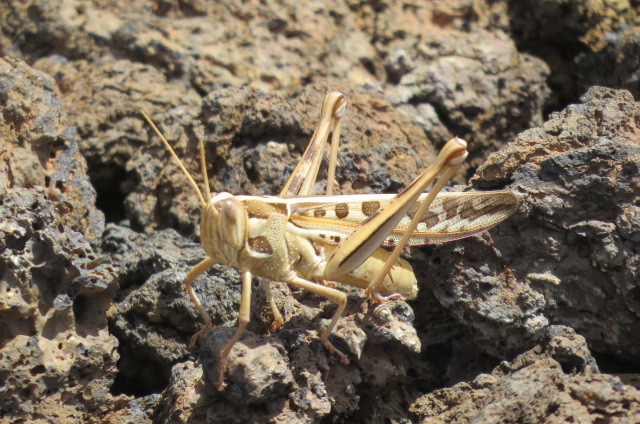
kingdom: Animalia
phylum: Arthropoda
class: Insecta
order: Orthoptera
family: Acrididae
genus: Cyrtacanthacris
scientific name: Cyrtacanthacris tatarica
